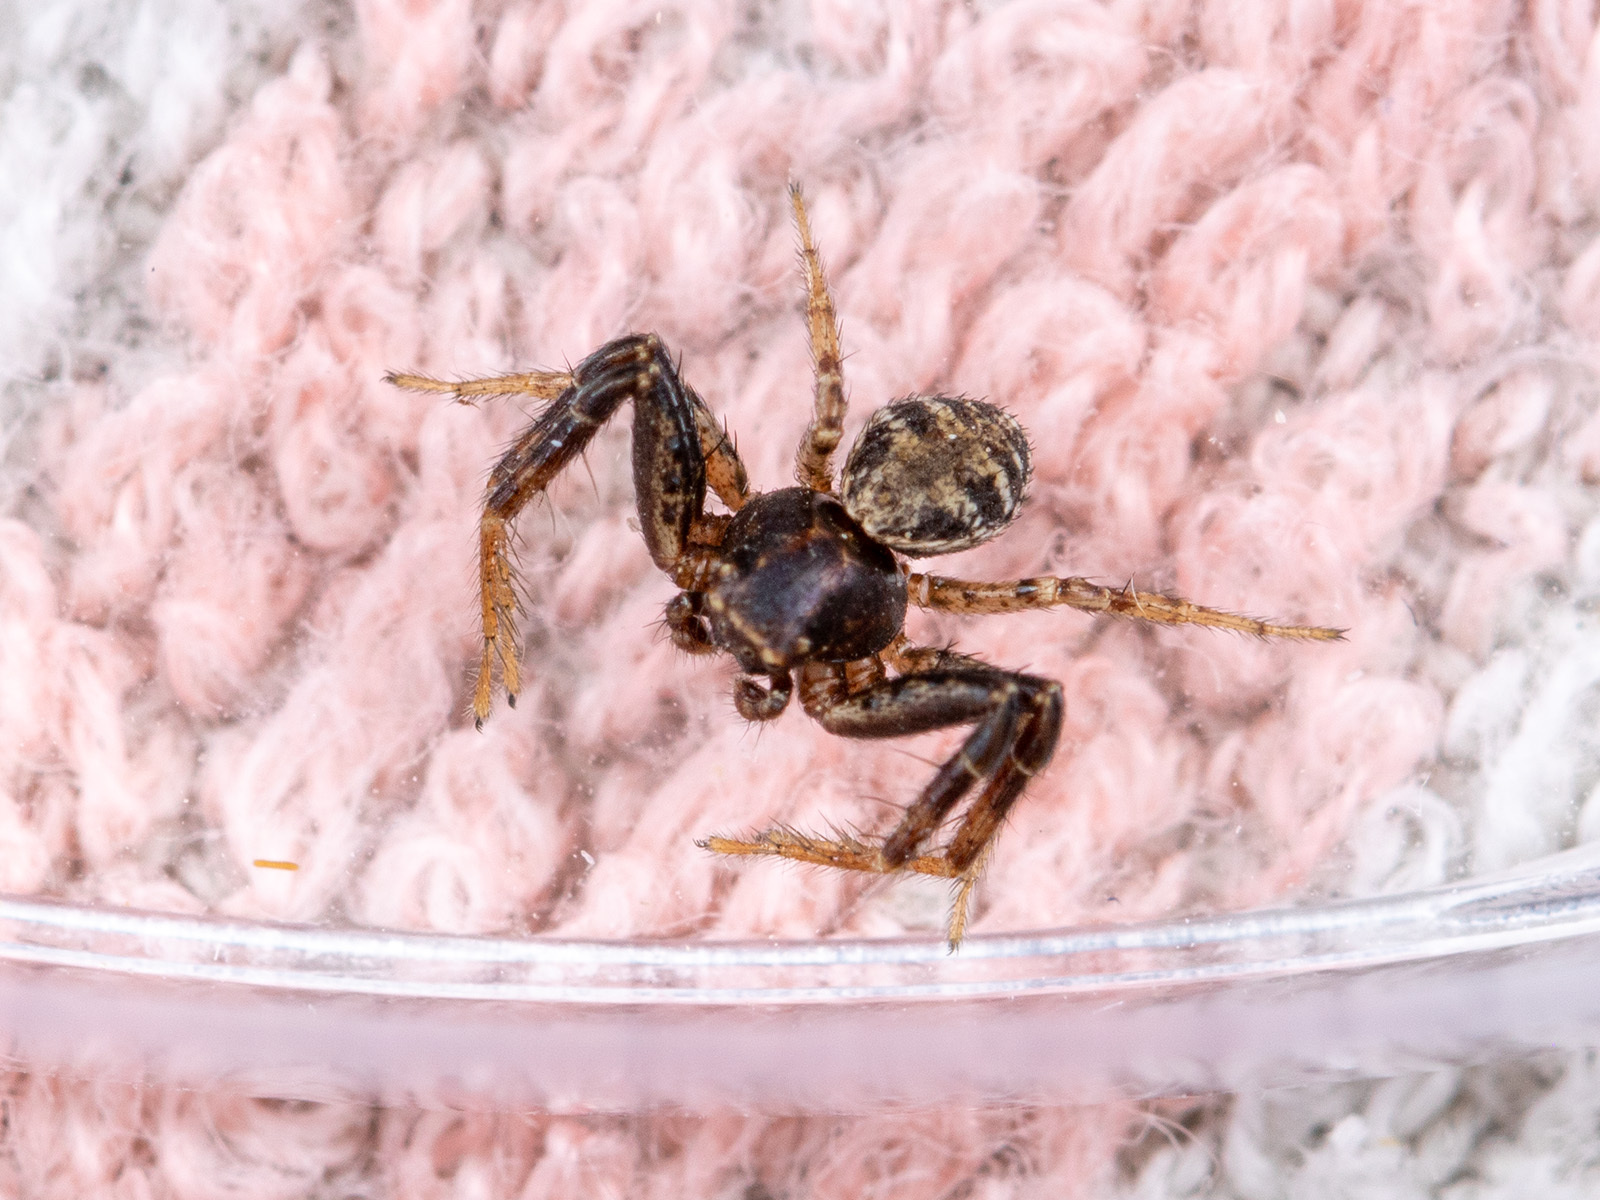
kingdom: Animalia
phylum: Arthropoda
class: Arachnida
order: Araneae
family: Thomisidae
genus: Psammitis
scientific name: Psammitis minor
